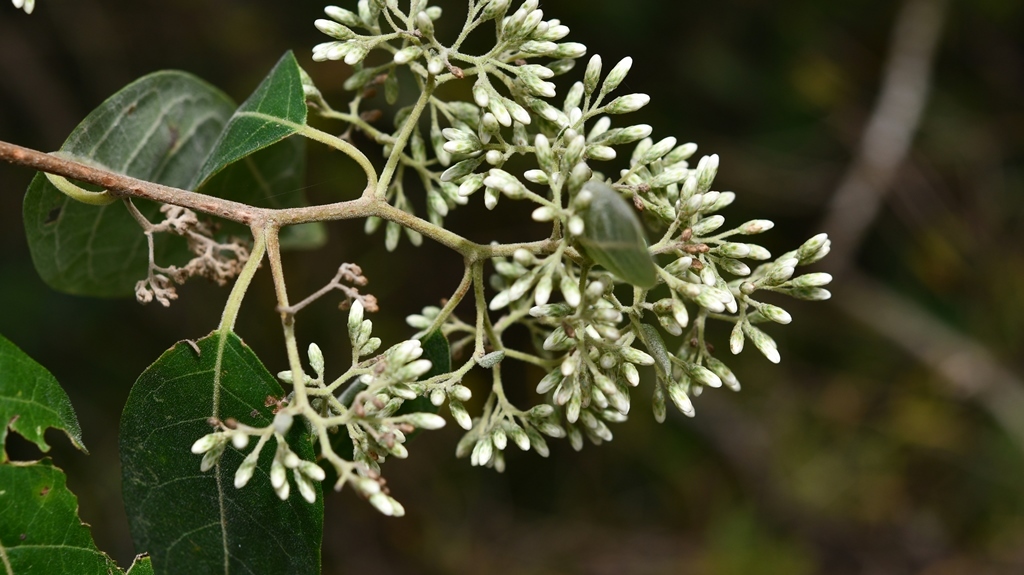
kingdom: Plantae
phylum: Tracheophyta
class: Magnoliopsida
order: Asterales
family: Asteraceae
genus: Eremosis
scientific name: Eremosis leiocarpa
